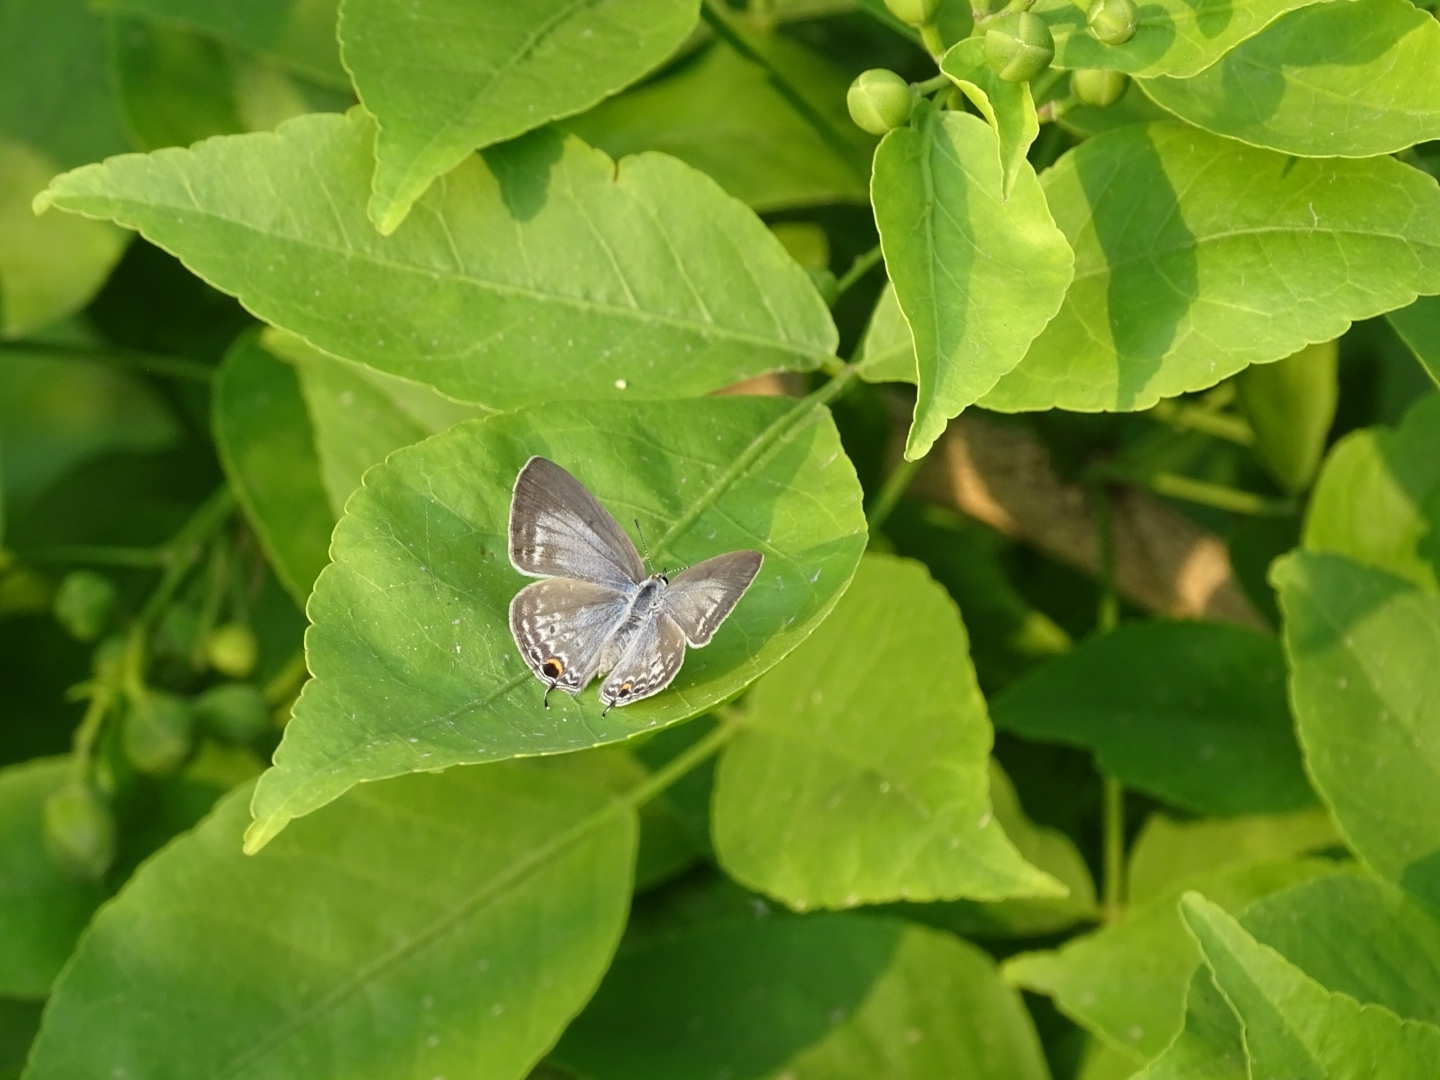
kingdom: Animalia
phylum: Arthropoda
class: Insecta
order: Lepidoptera
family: Lycaenidae
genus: Catochrysops
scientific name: Catochrysops strabo
